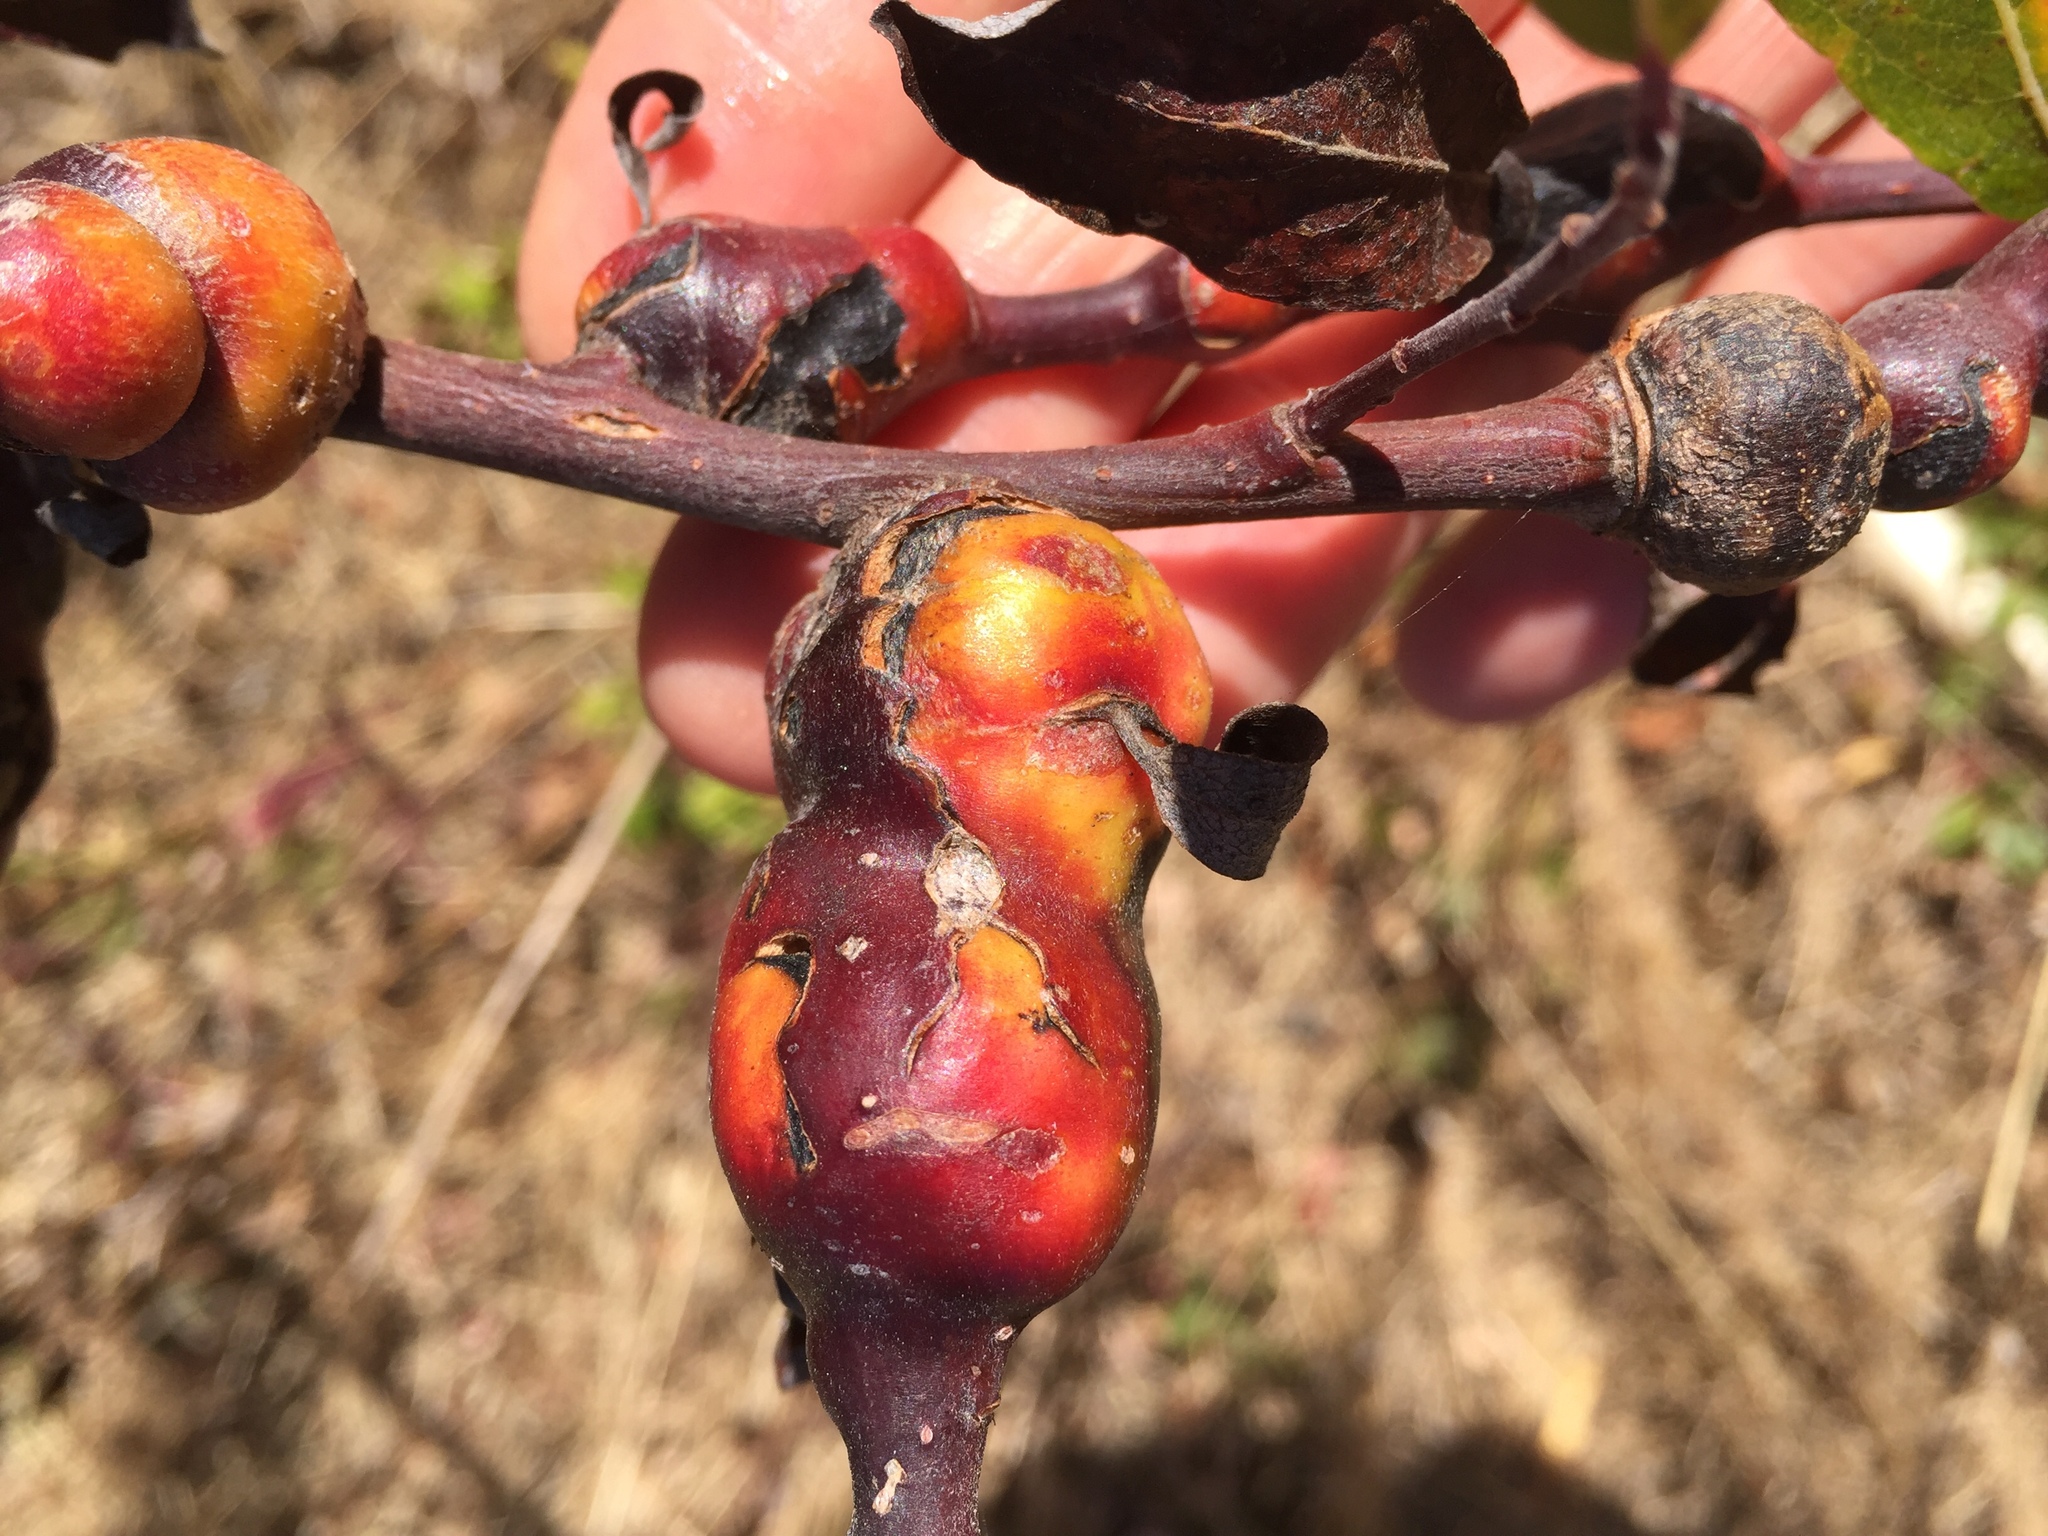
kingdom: Animalia
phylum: Arthropoda
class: Insecta
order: Hymenoptera
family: Tenthredinidae
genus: Euura
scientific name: Euura
